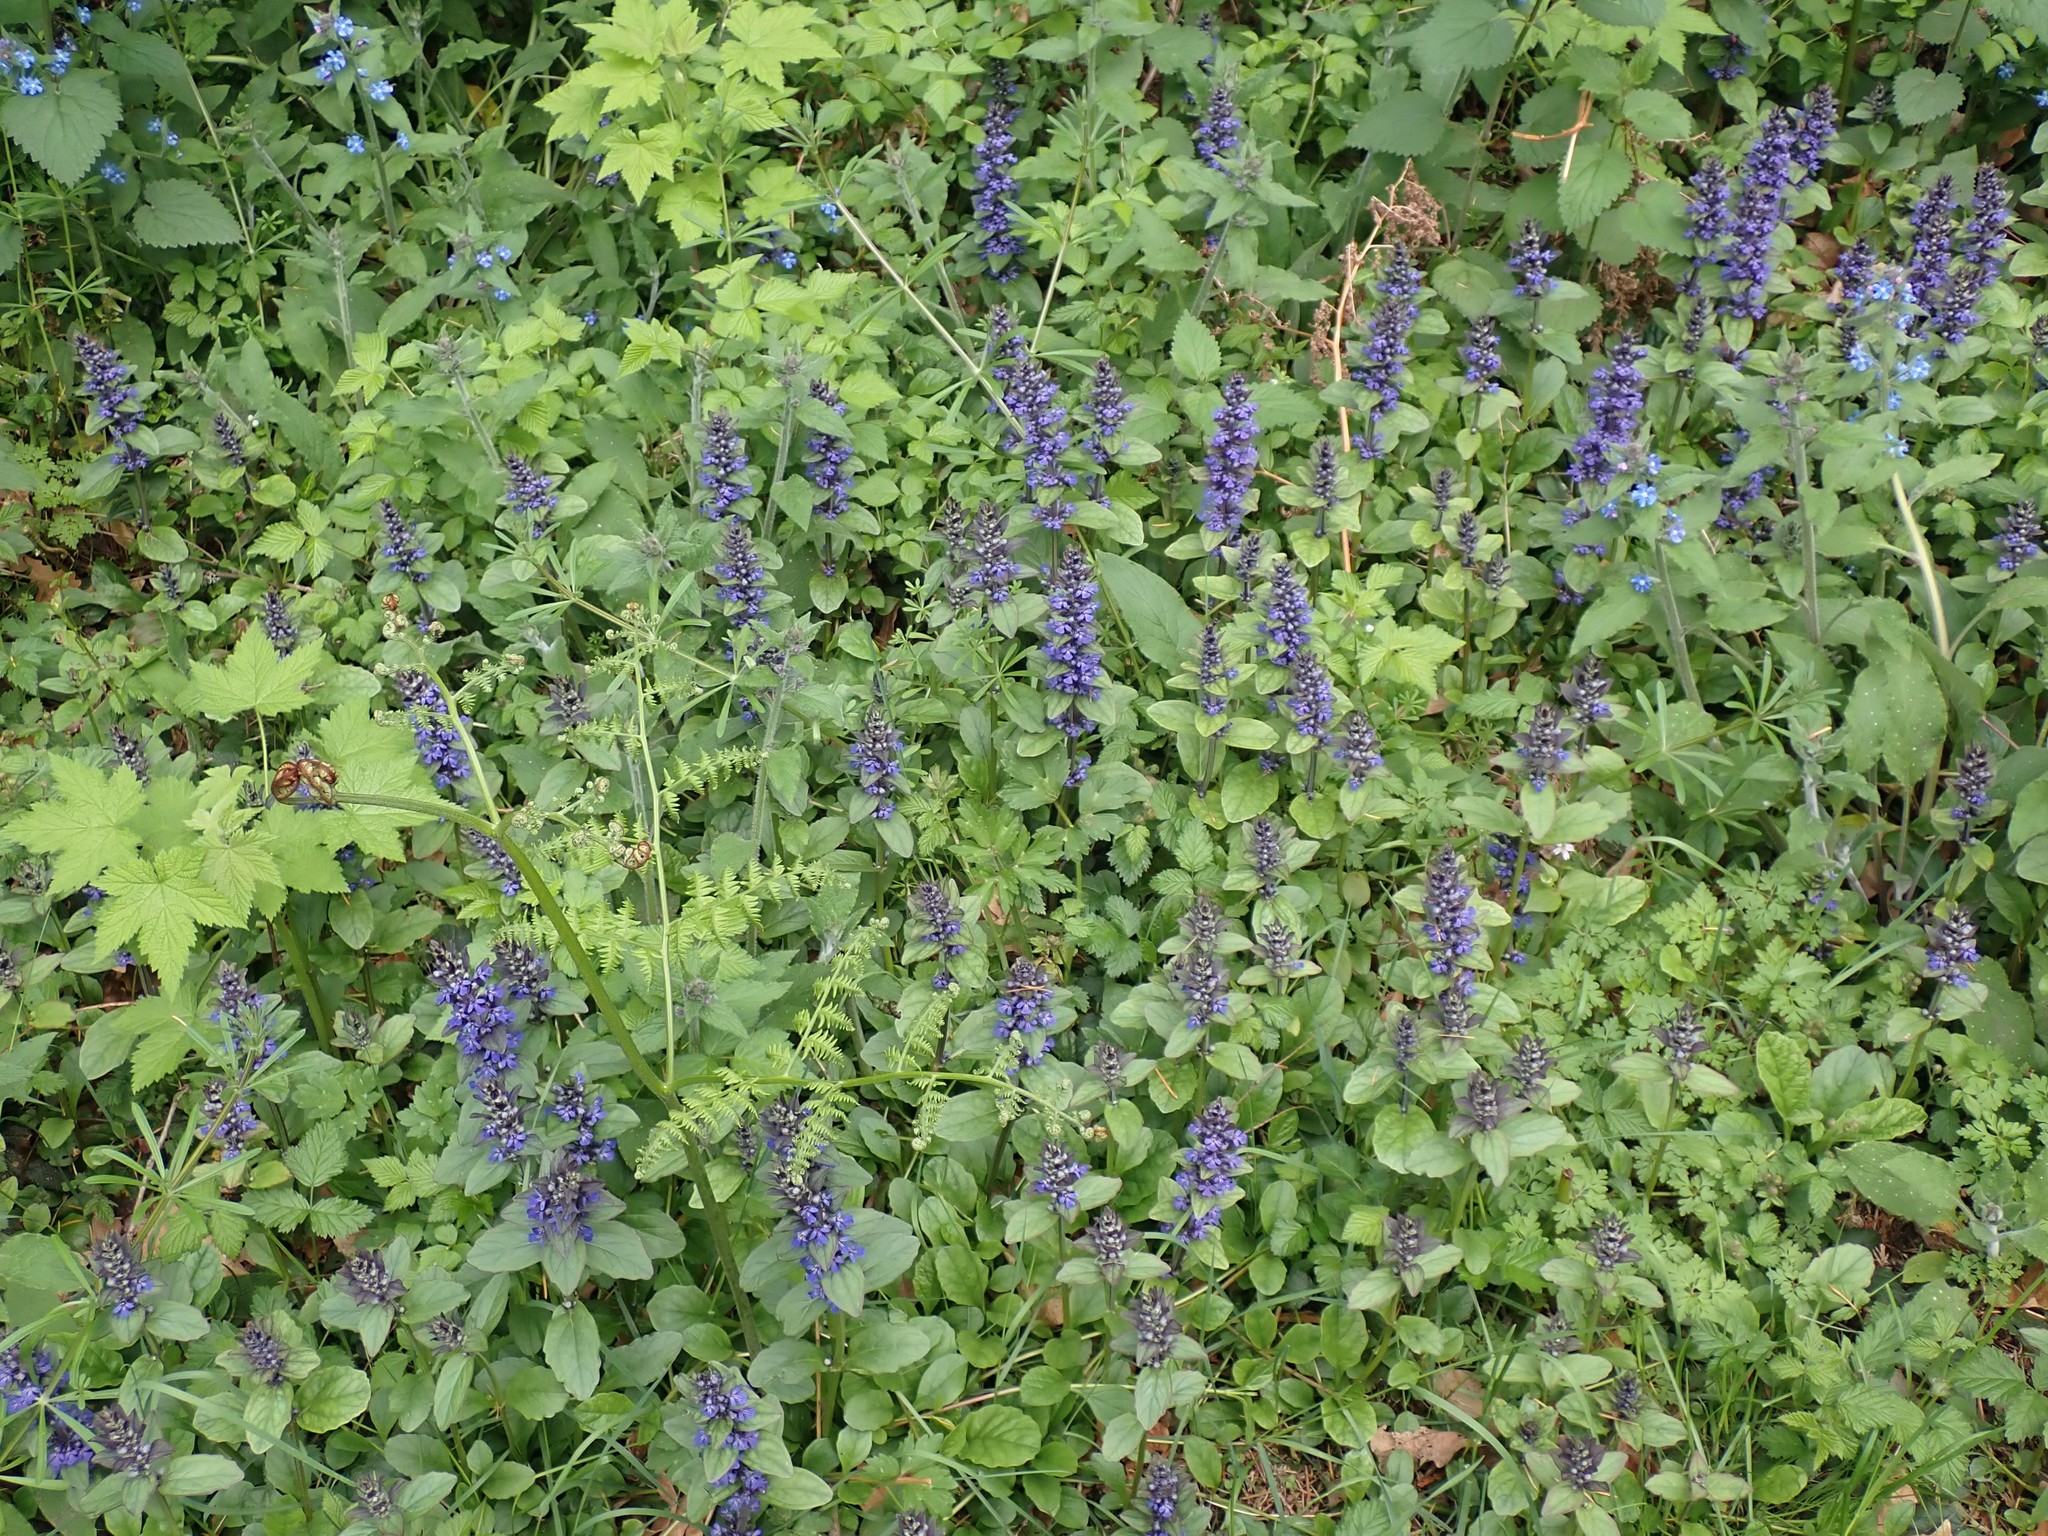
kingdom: Plantae
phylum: Tracheophyta
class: Magnoliopsida
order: Lamiales
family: Lamiaceae
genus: Ajuga
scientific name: Ajuga reptans
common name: Bugle
